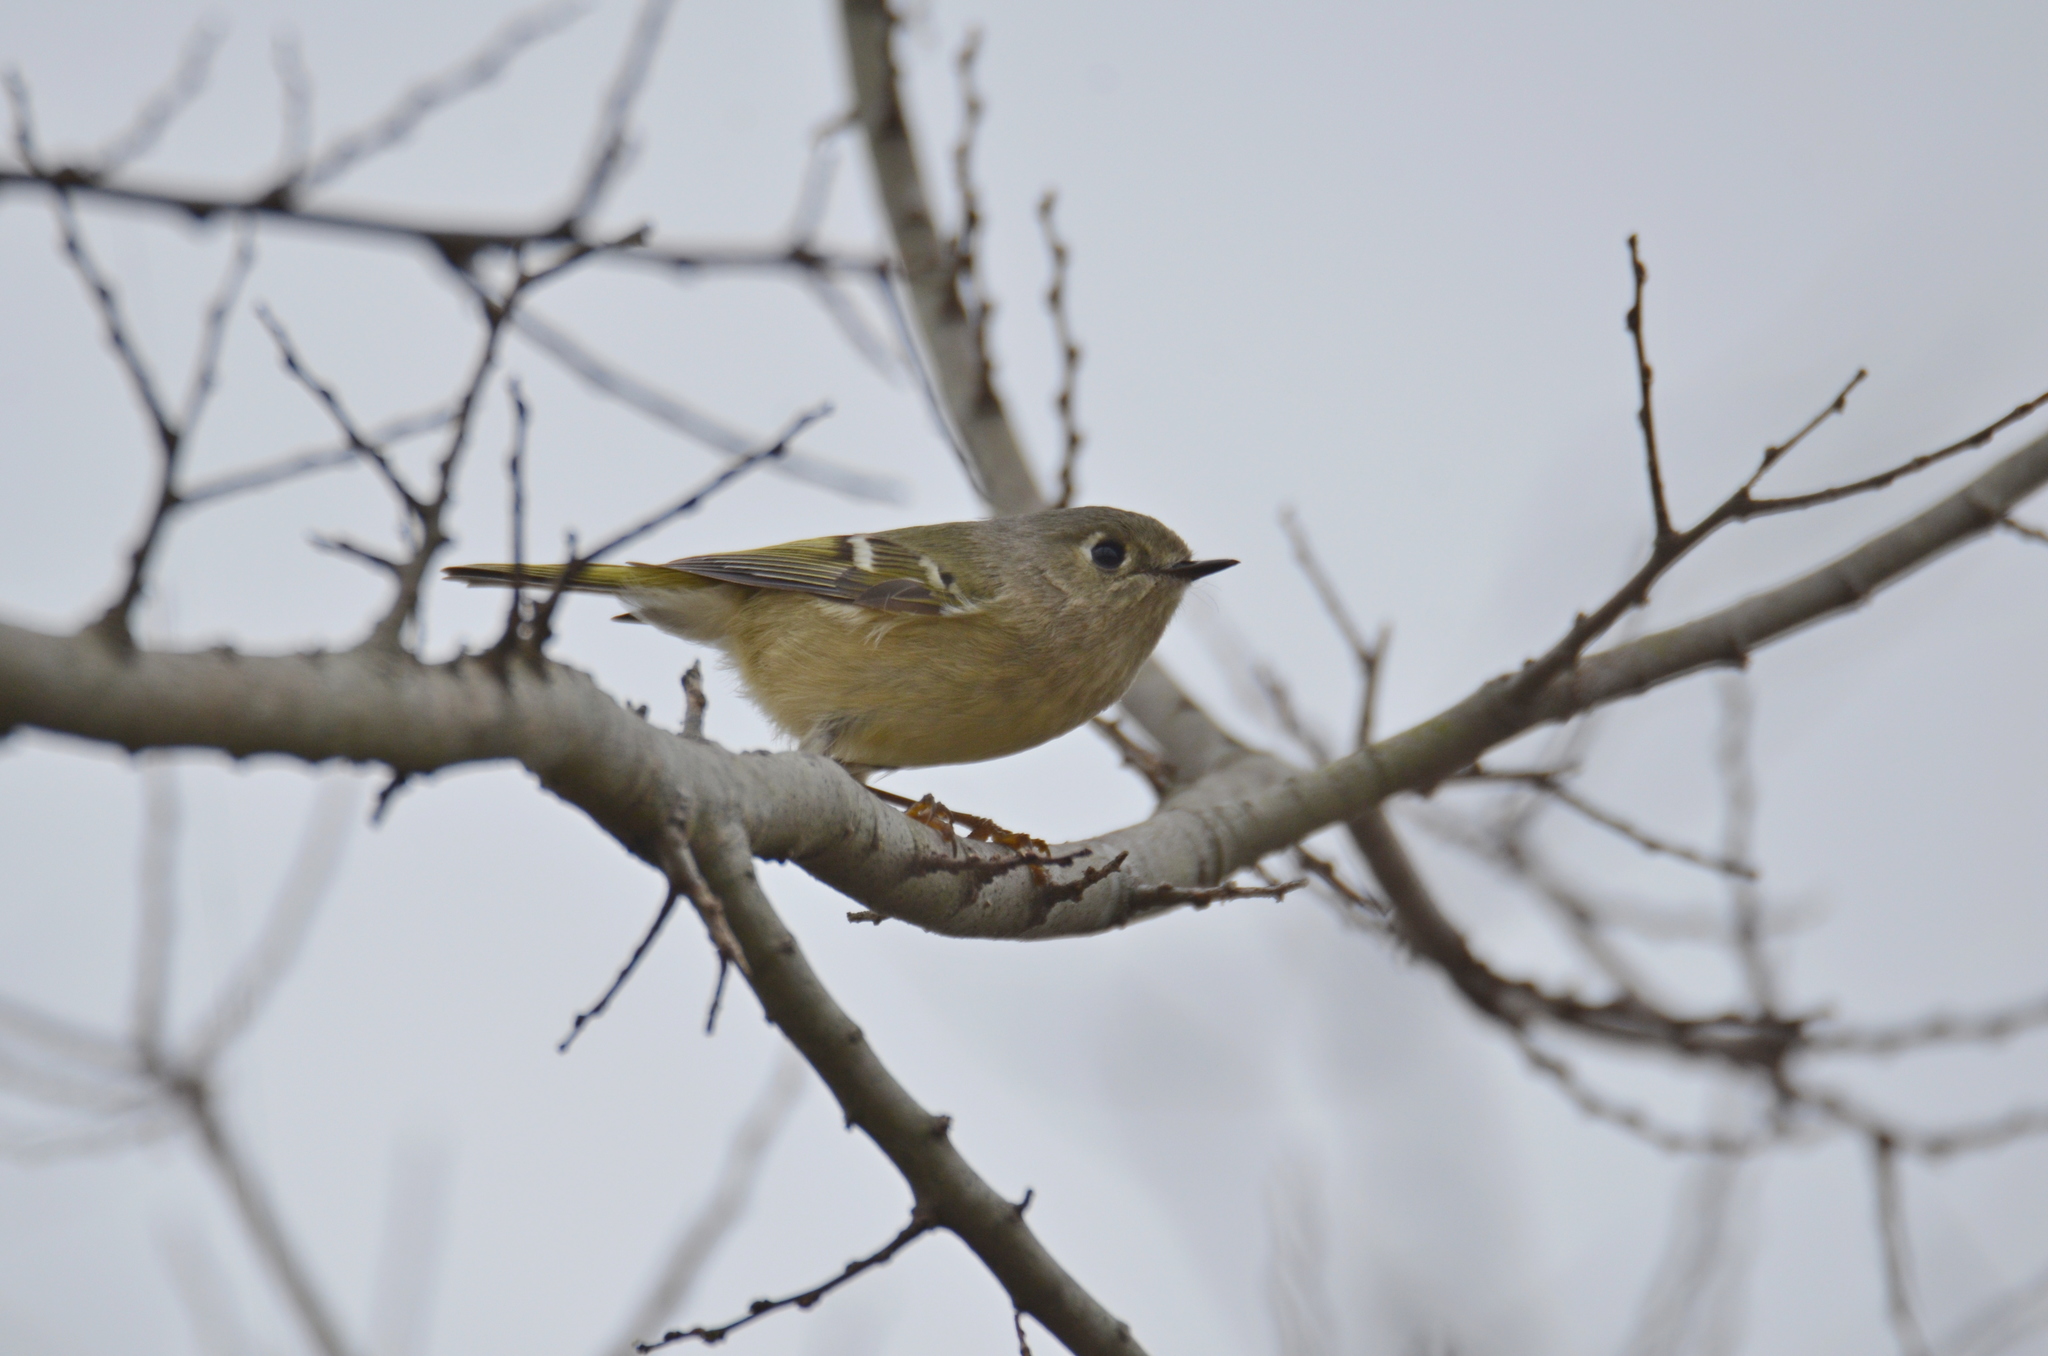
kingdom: Animalia
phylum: Chordata
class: Aves
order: Passeriformes
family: Regulidae
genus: Regulus
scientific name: Regulus calendula
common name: Ruby-crowned kinglet
